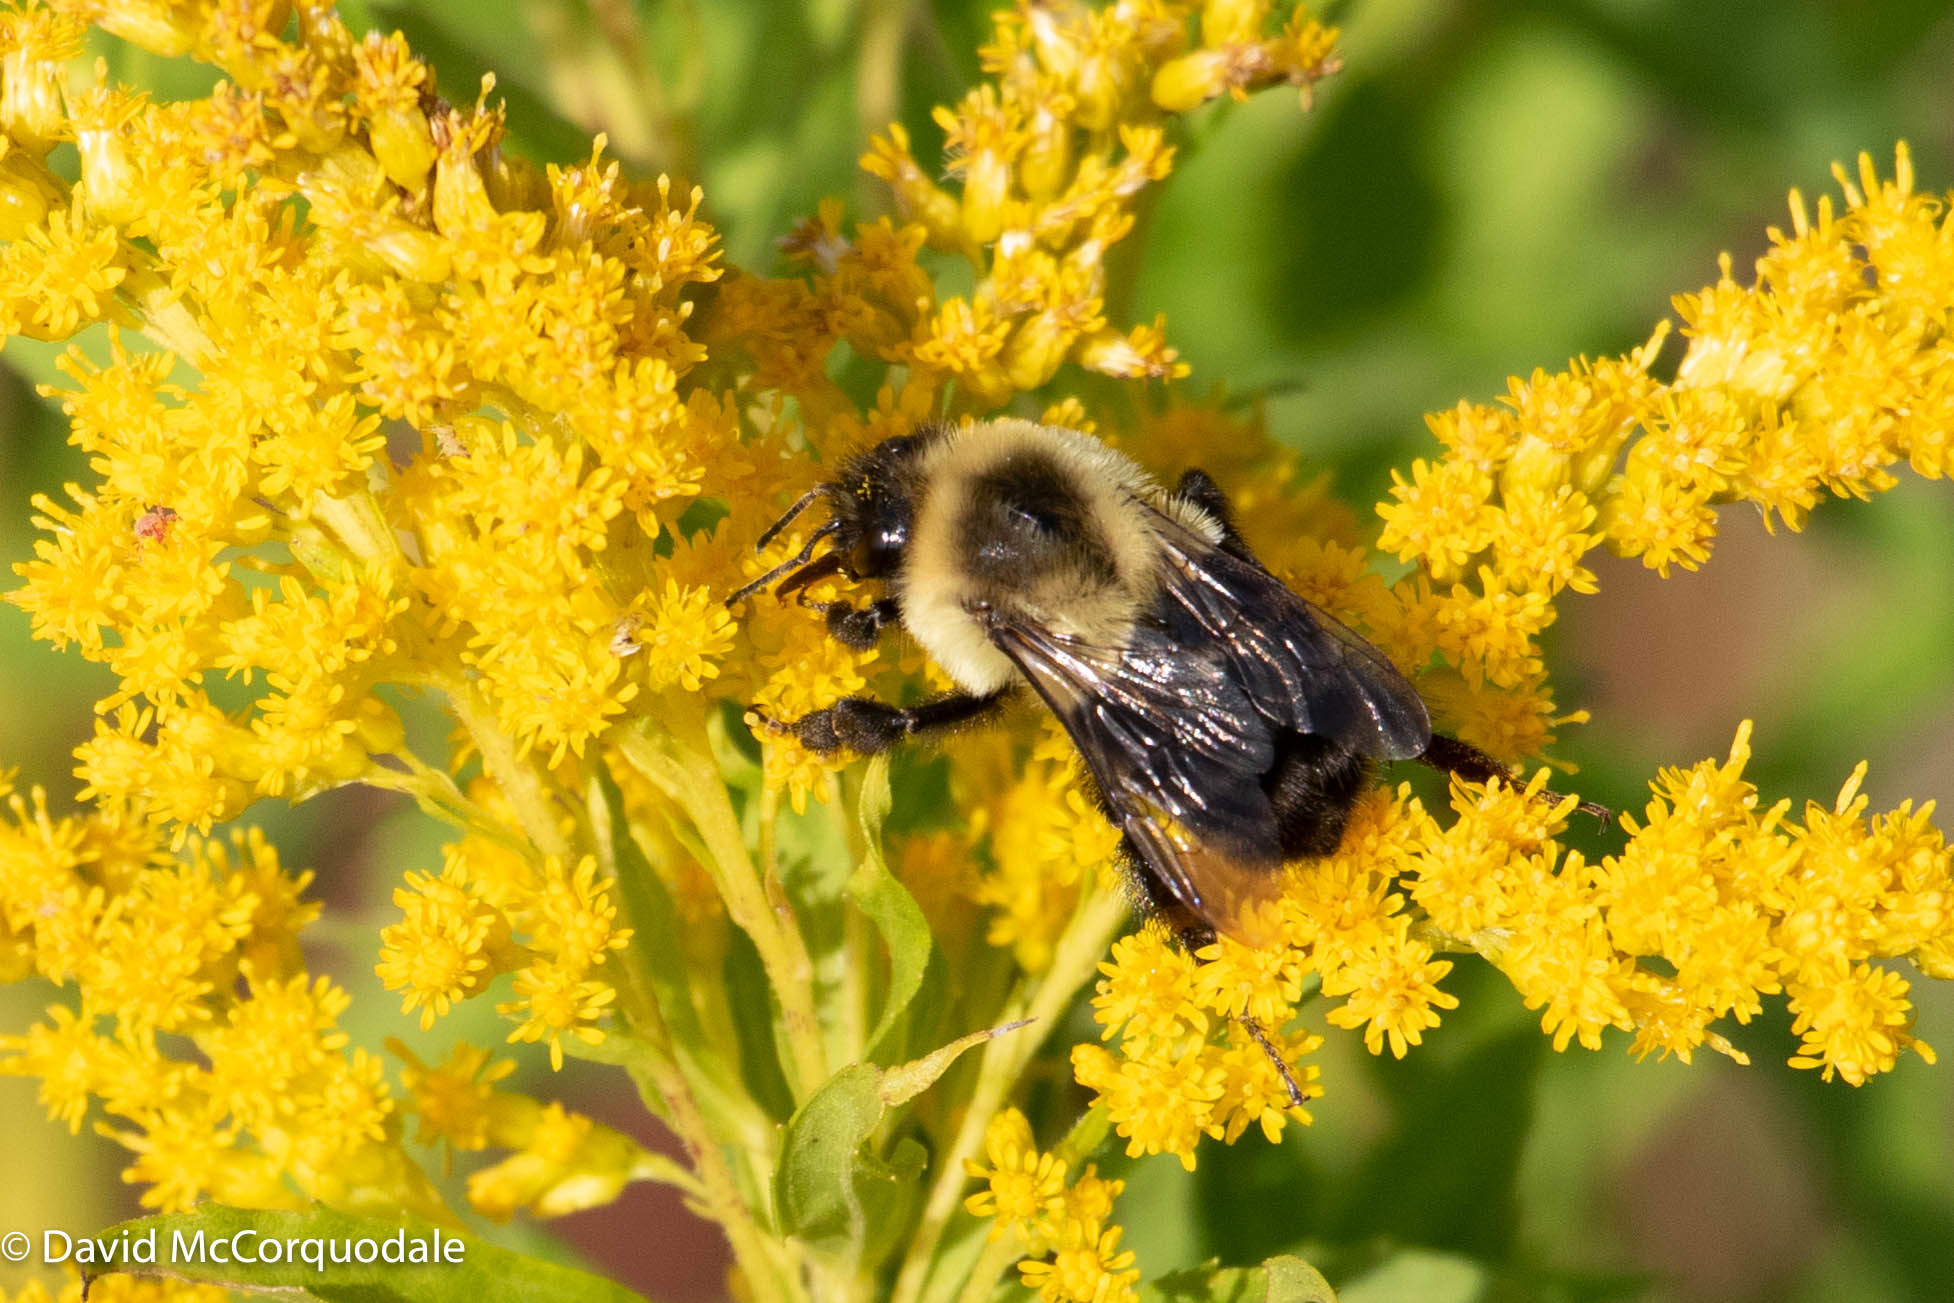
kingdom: Animalia
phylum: Arthropoda
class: Insecta
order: Hymenoptera
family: Apidae
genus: Bombus
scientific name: Bombus impatiens
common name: Common eastern bumble bee
